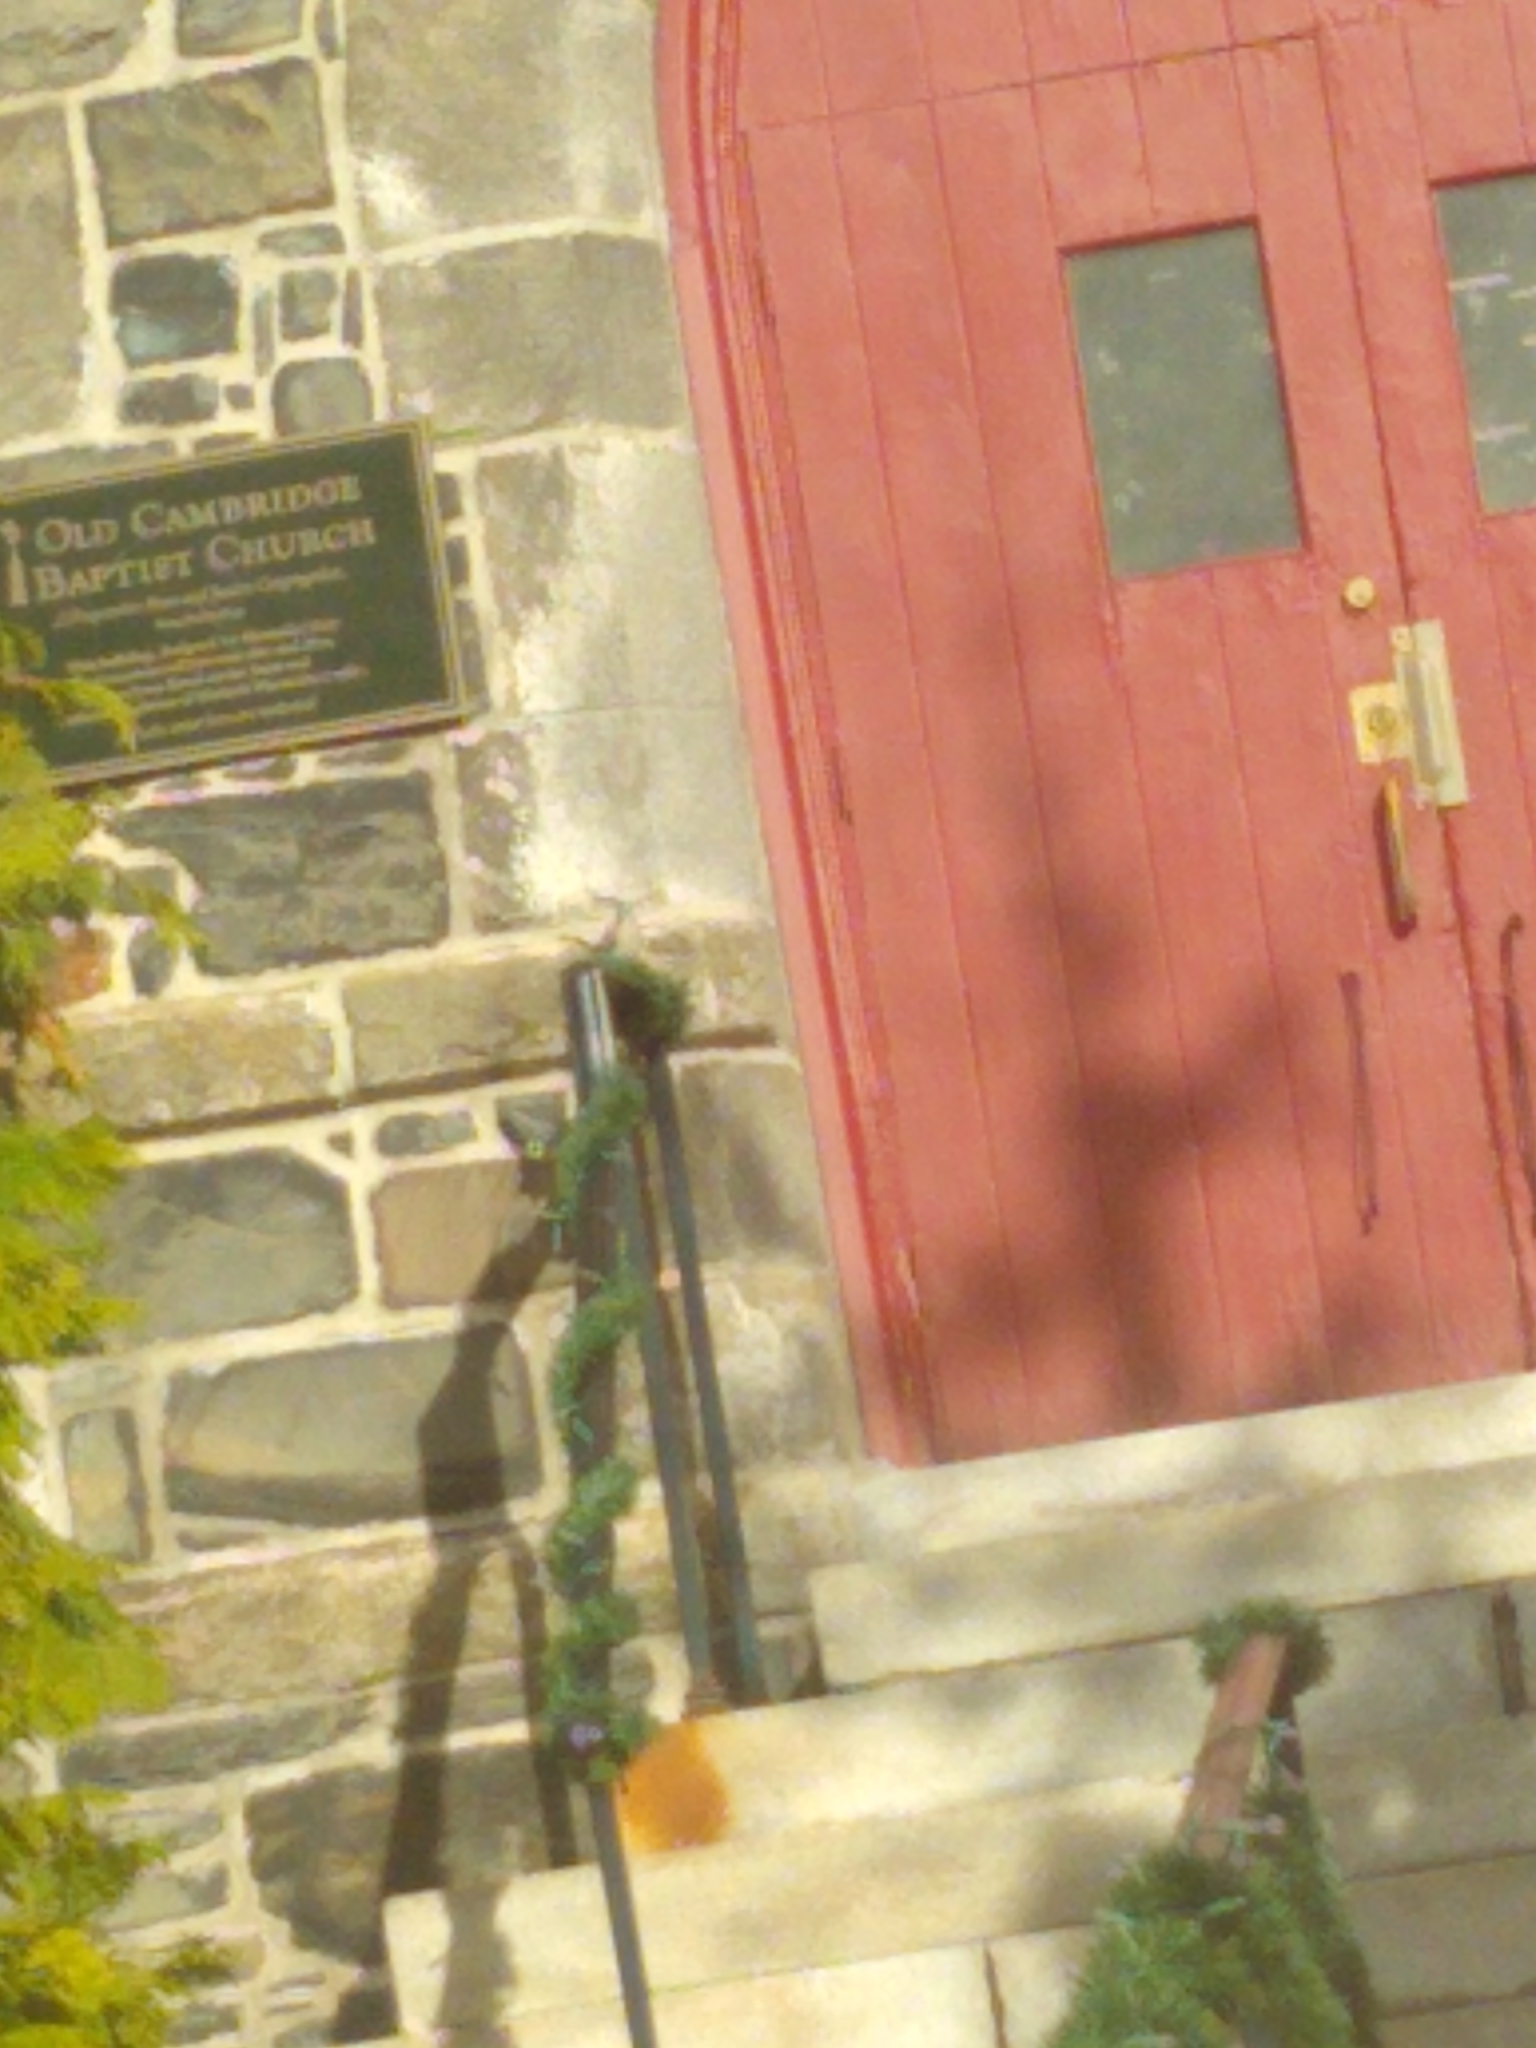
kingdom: Animalia
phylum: Chordata
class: Aves
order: Passeriformes
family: Mimidae
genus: Mimus
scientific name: Mimus polyglottos
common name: Northern mockingbird
